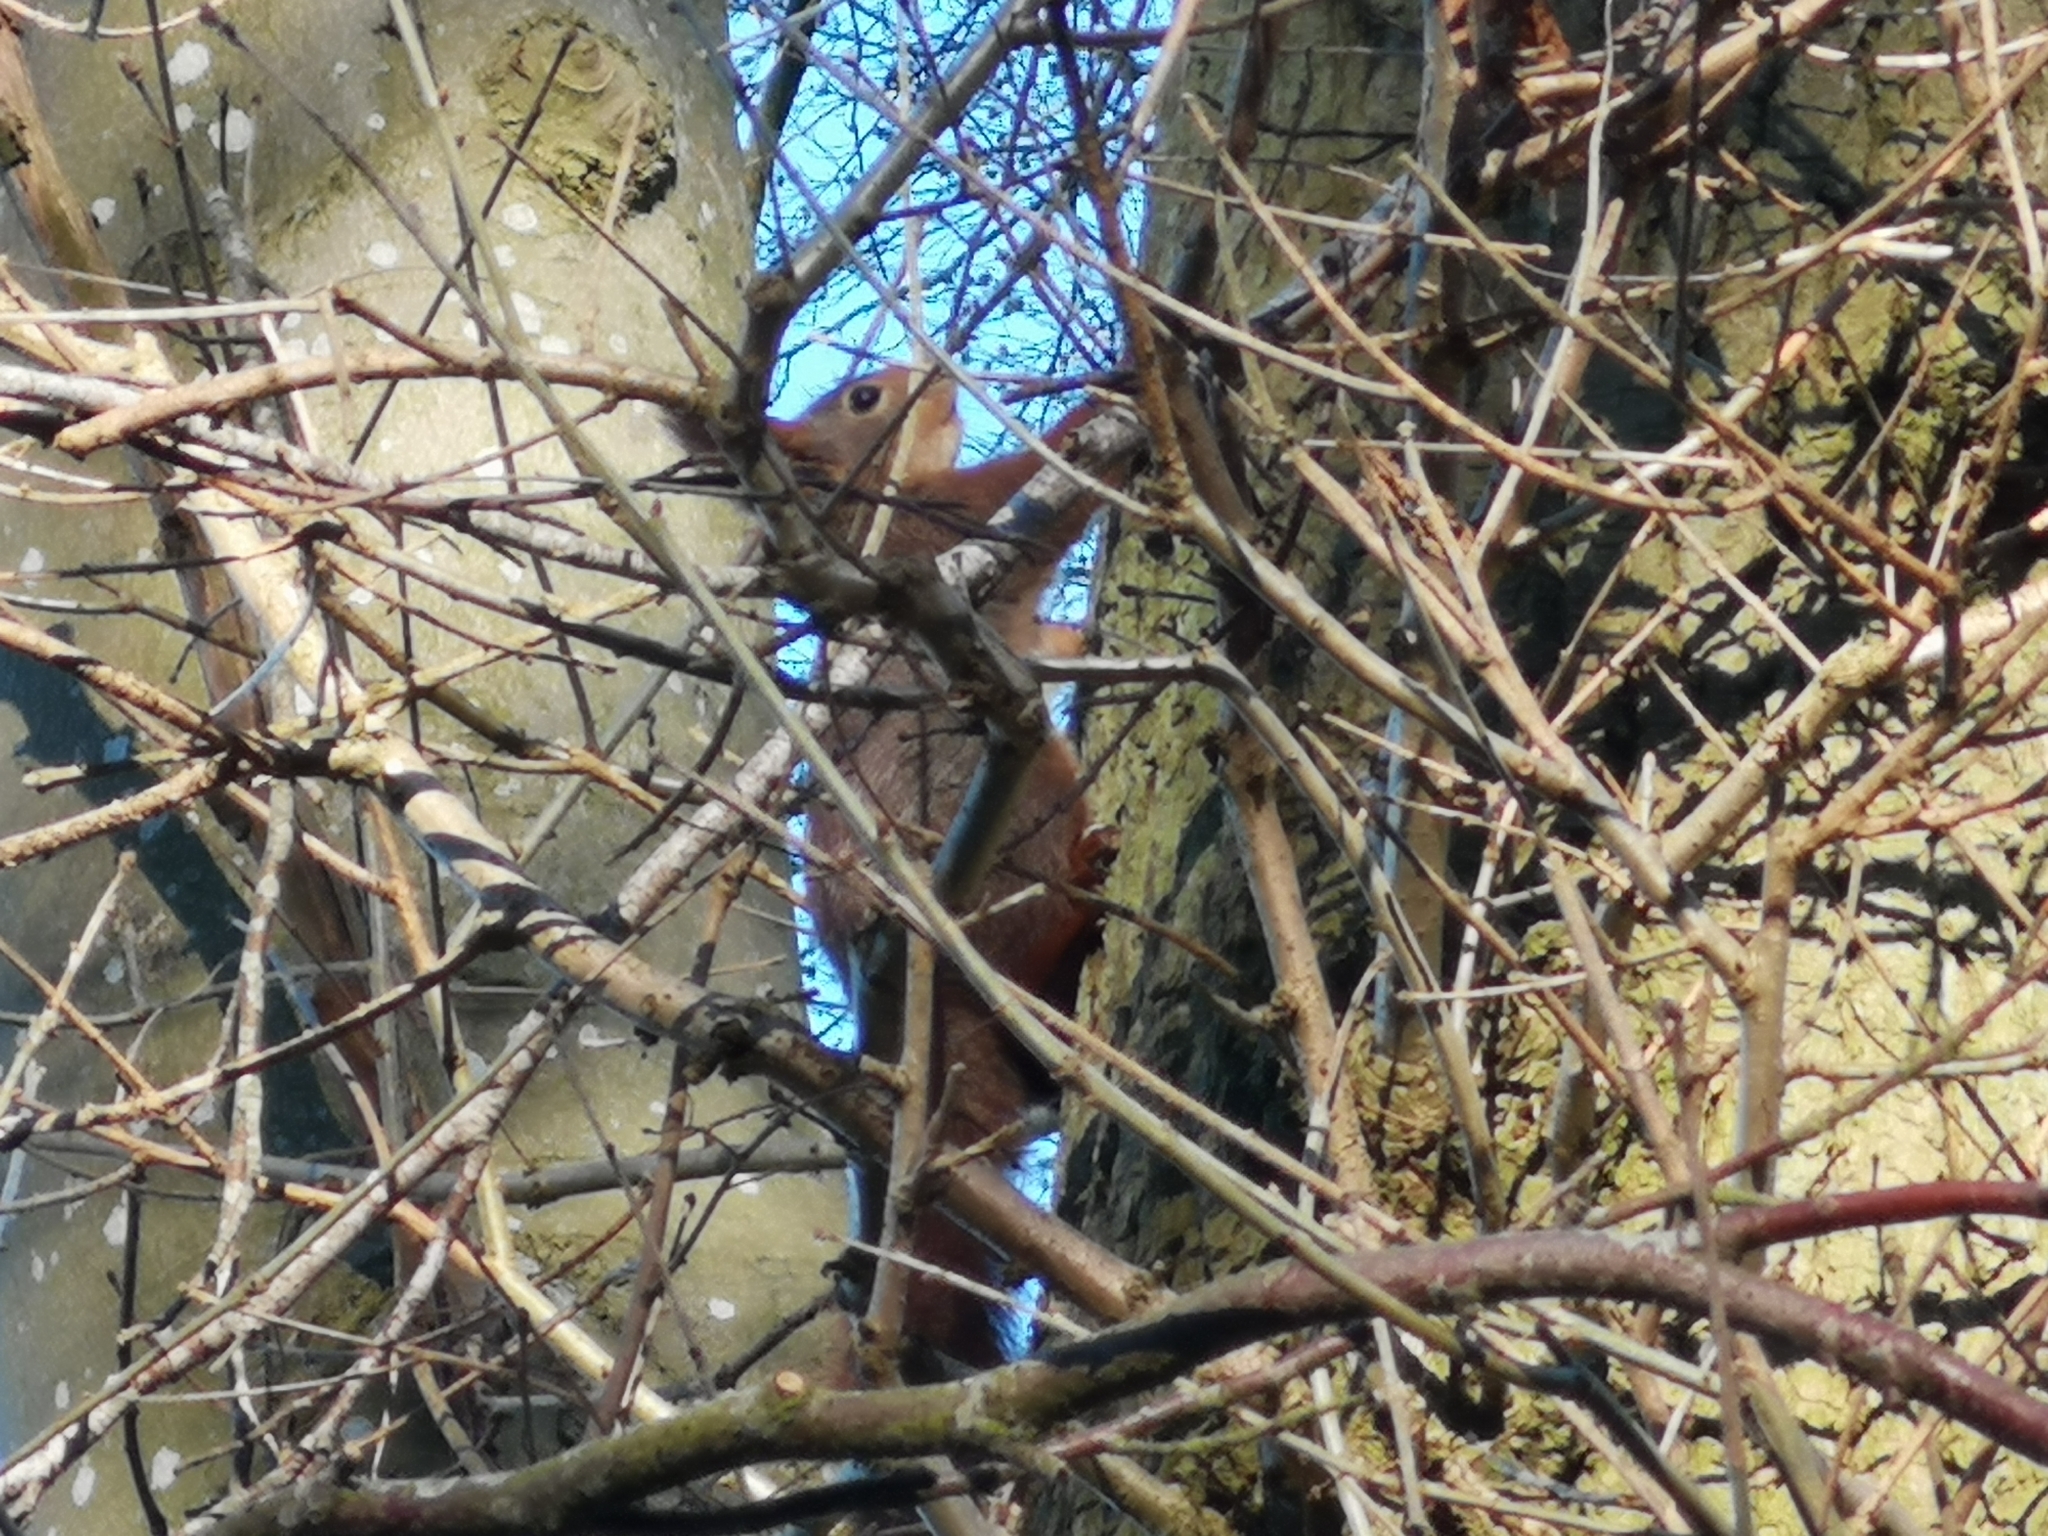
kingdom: Animalia
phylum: Chordata
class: Mammalia
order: Rodentia
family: Sciuridae
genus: Sciurus
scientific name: Sciurus vulgaris
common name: Eurasian red squirrel
